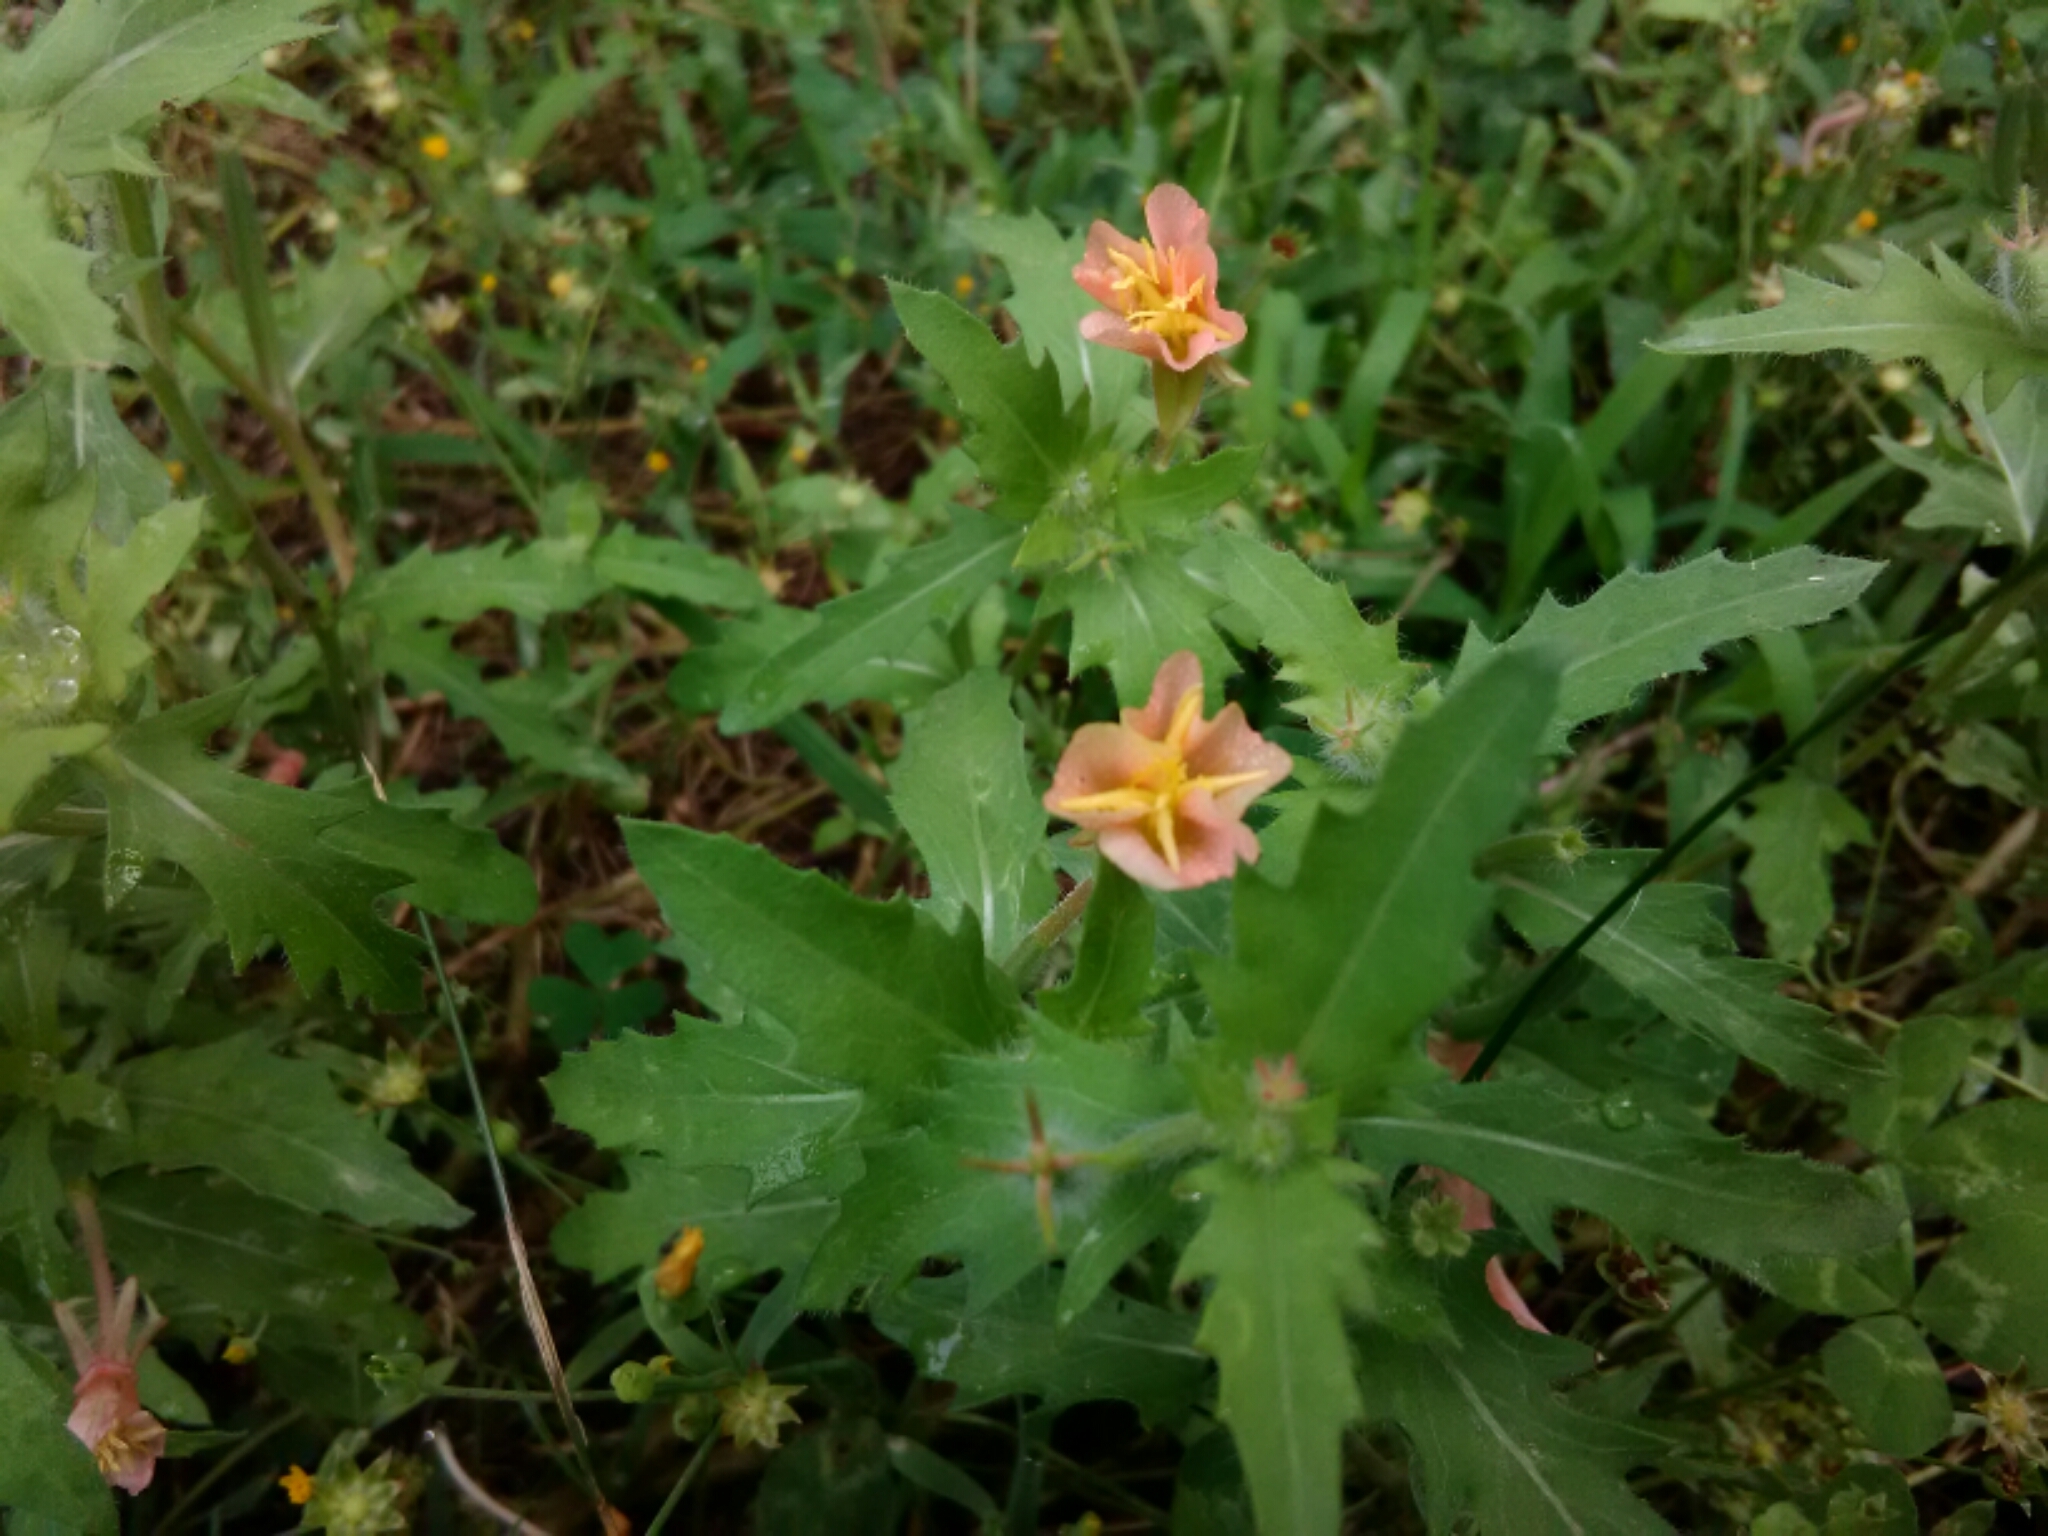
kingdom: Plantae
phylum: Tracheophyta
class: Magnoliopsida
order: Myrtales
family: Onagraceae
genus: Oenothera
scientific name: Oenothera laciniata
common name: Cut-leaved evening-primrose
